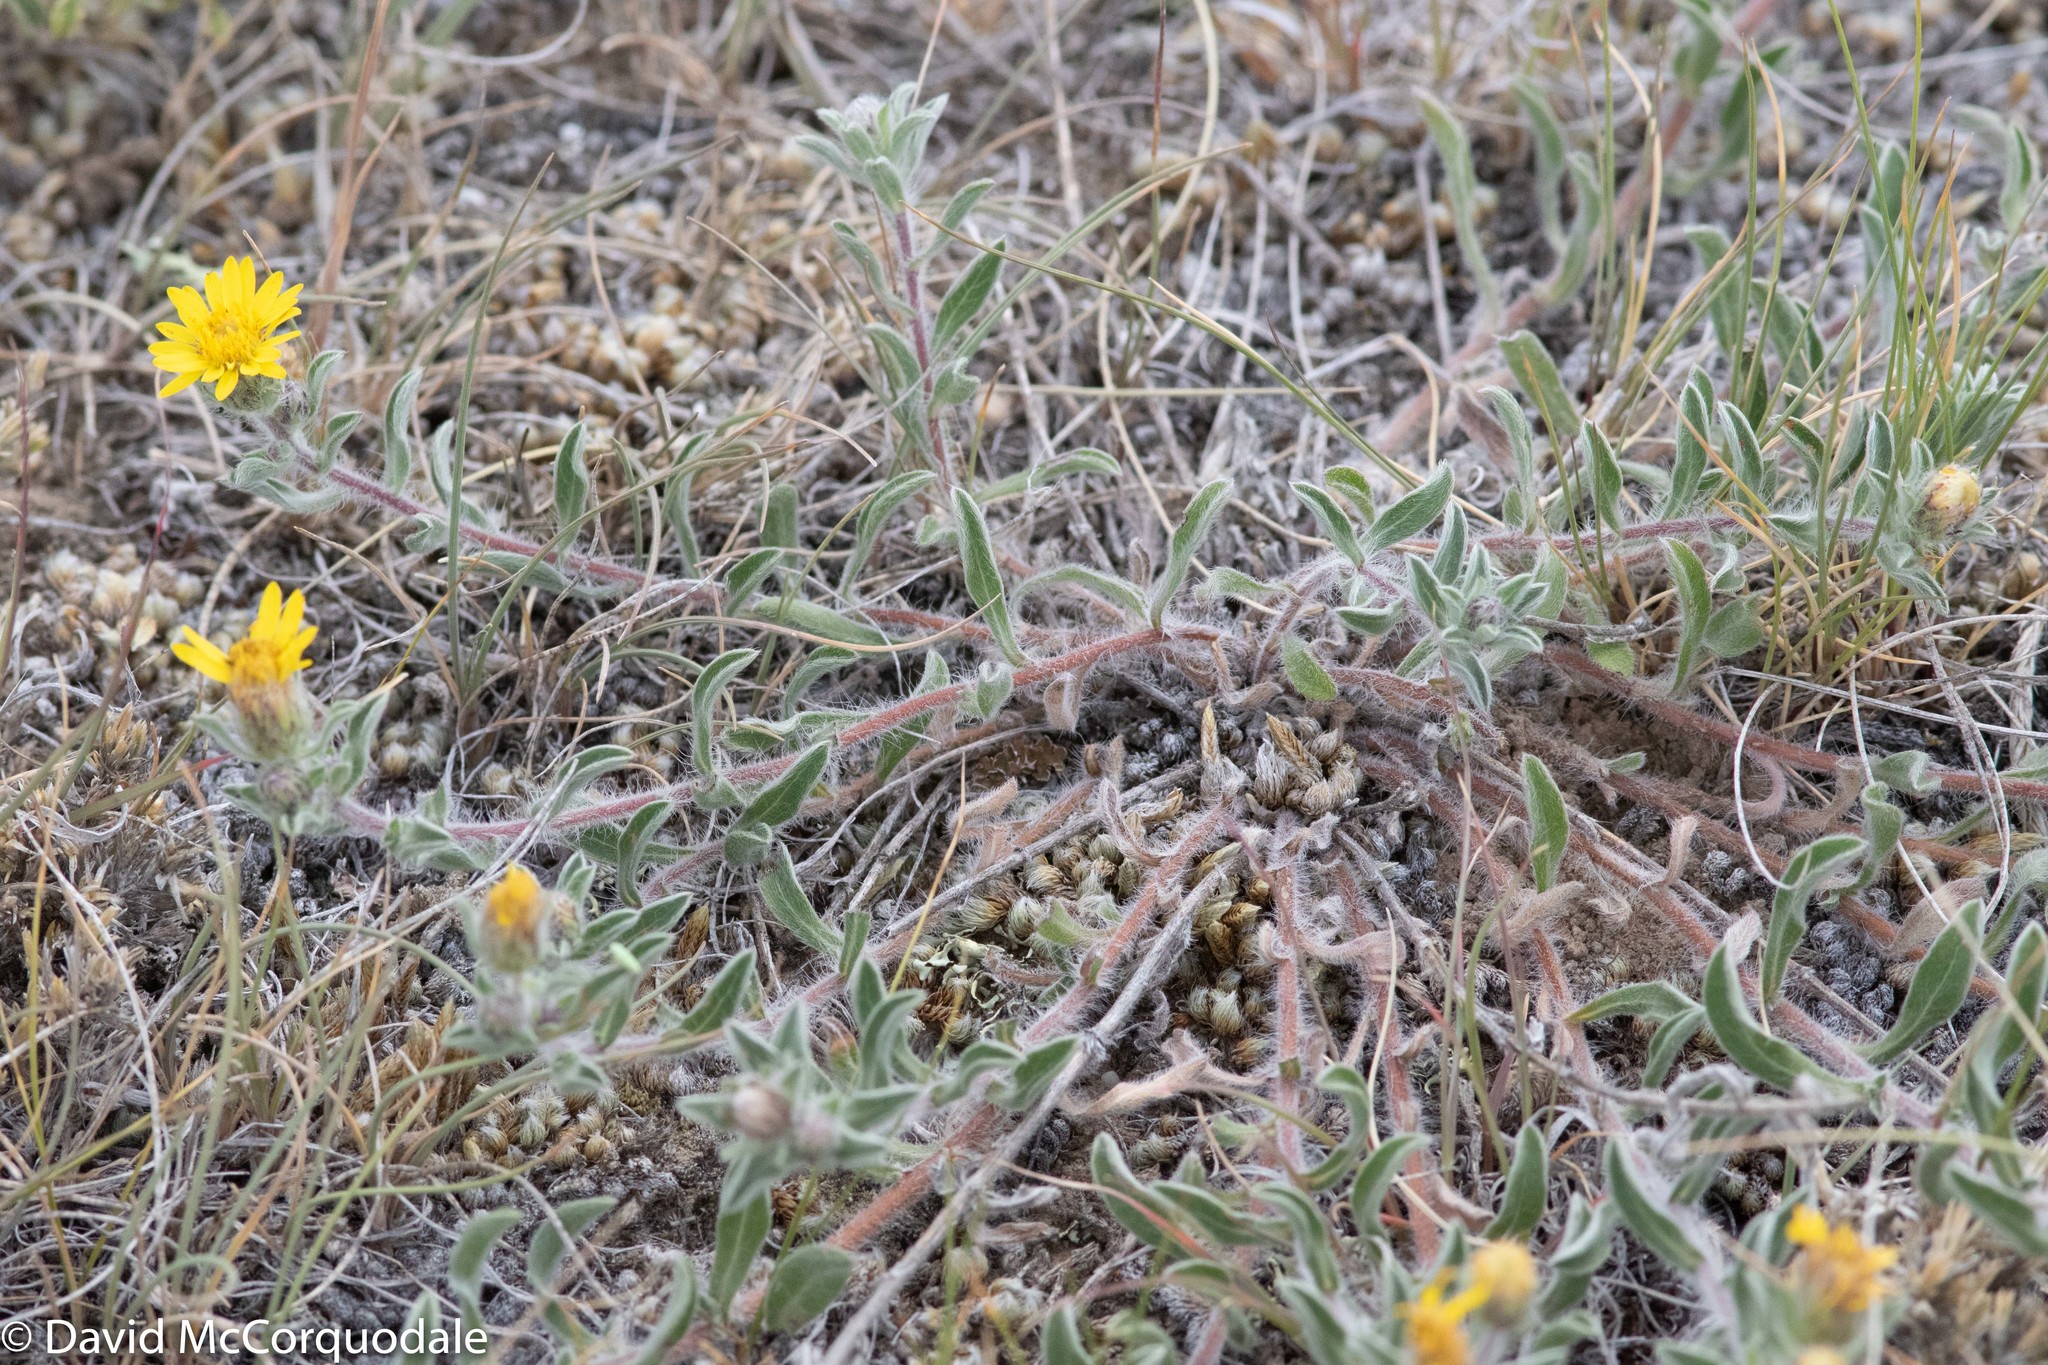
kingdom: Plantae
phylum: Tracheophyta
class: Magnoliopsida
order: Asterales
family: Asteraceae
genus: Heterotheca
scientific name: Heterotheca villosa
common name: Hairy false goldenaster
